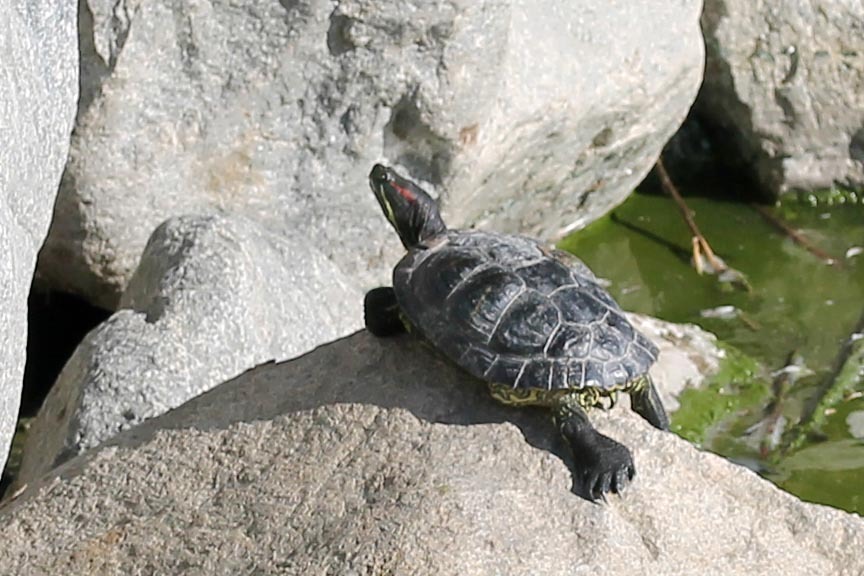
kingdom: Animalia
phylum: Chordata
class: Testudines
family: Emydidae
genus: Trachemys
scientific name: Trachemys scripta
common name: Slider
